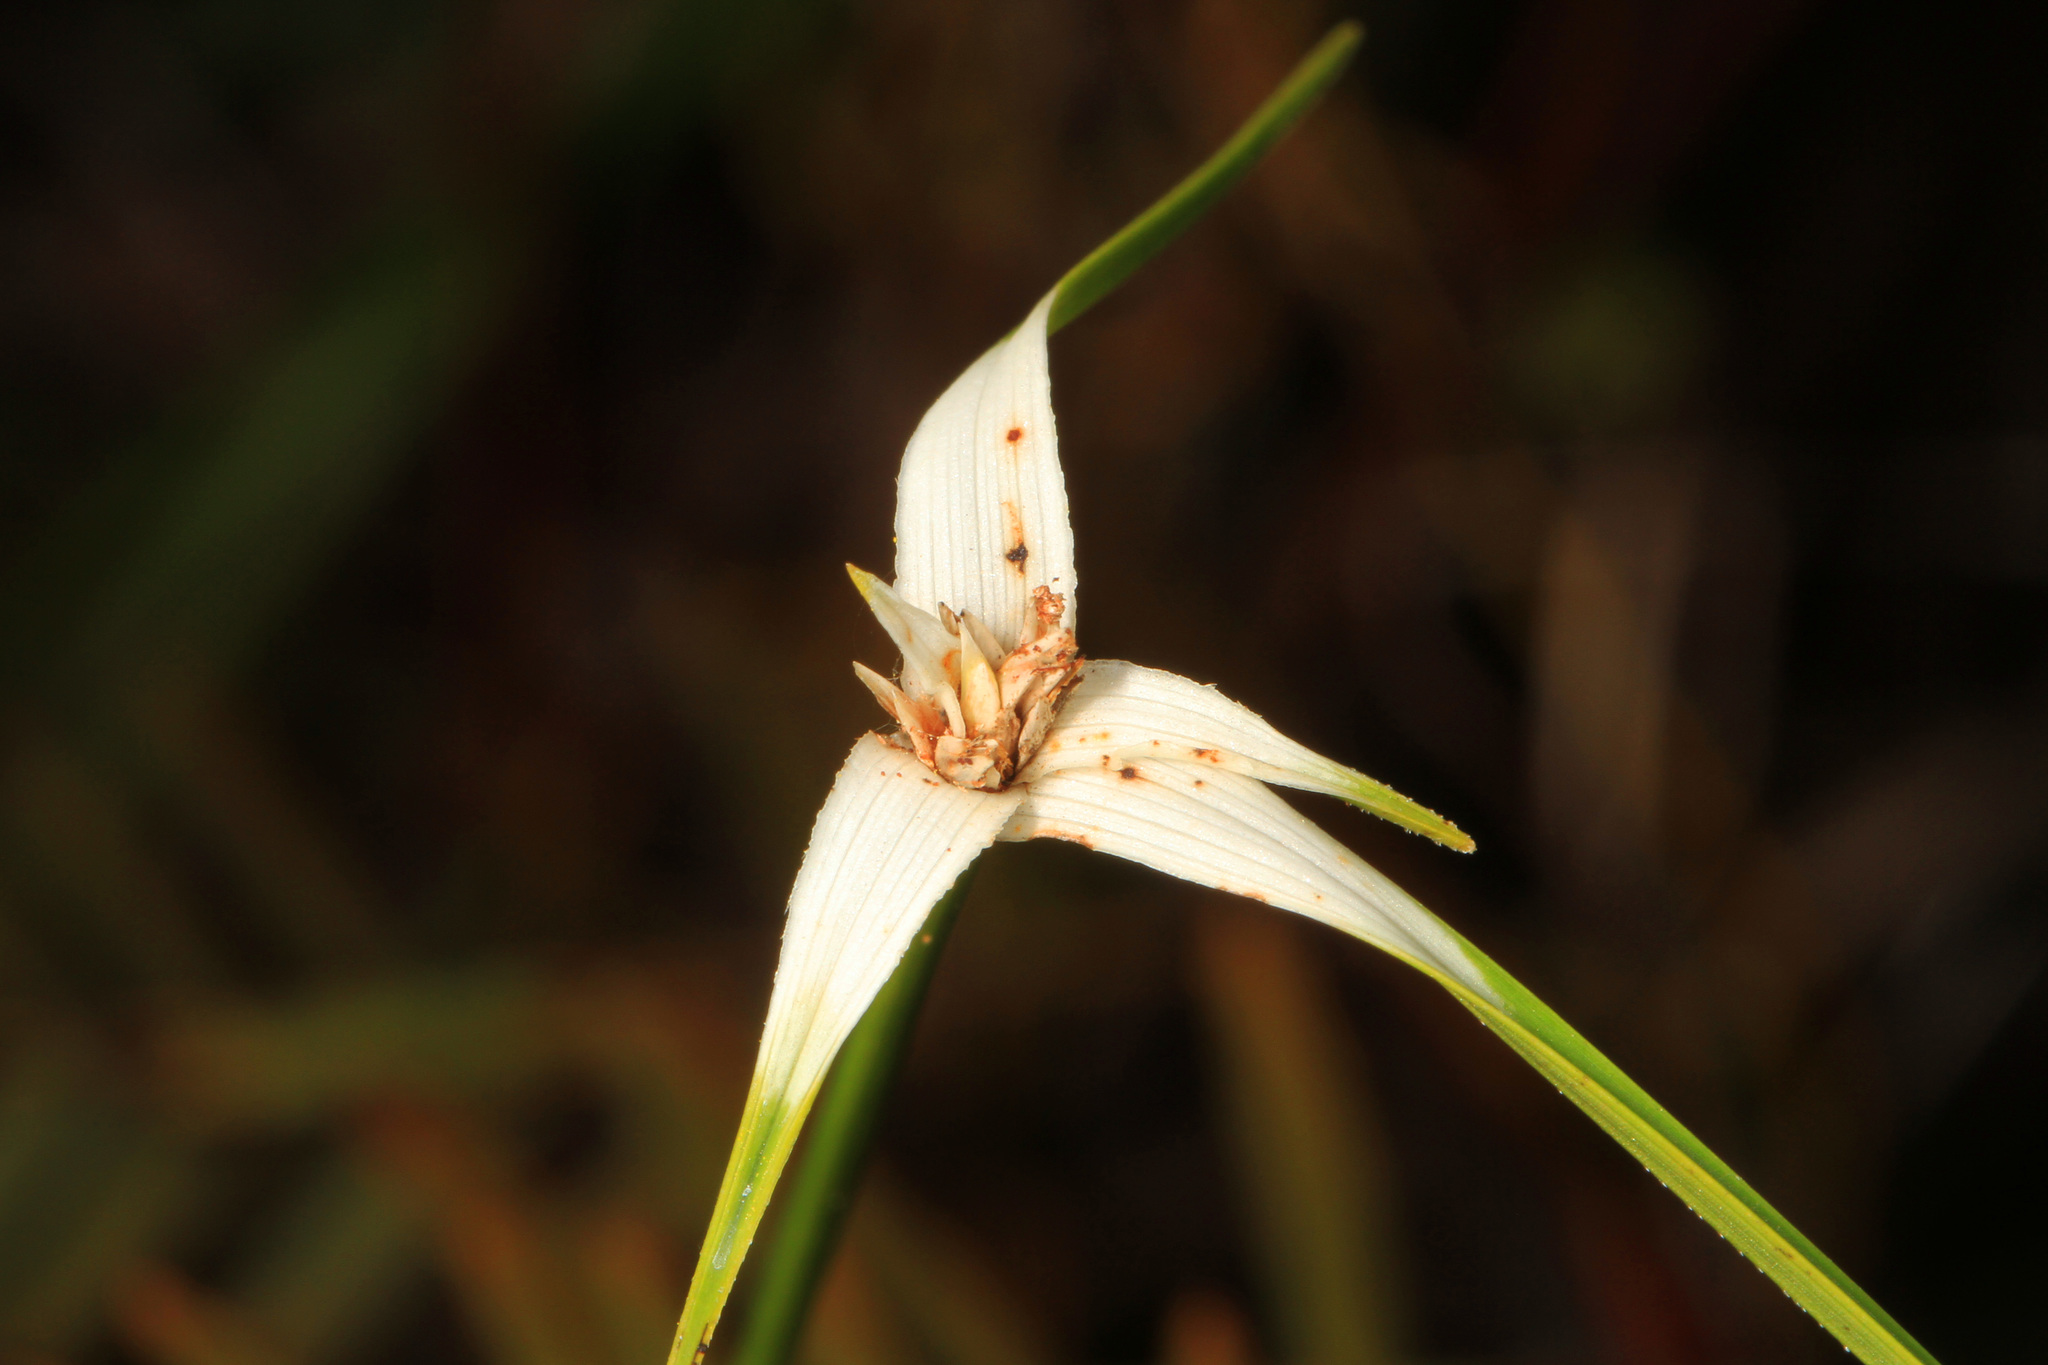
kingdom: Plantae
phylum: Tracheophyta
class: Liliopsida
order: Poales
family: Cyperaceae
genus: Rhynchospora
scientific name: Rhynchospora colorata
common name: Star sedge
